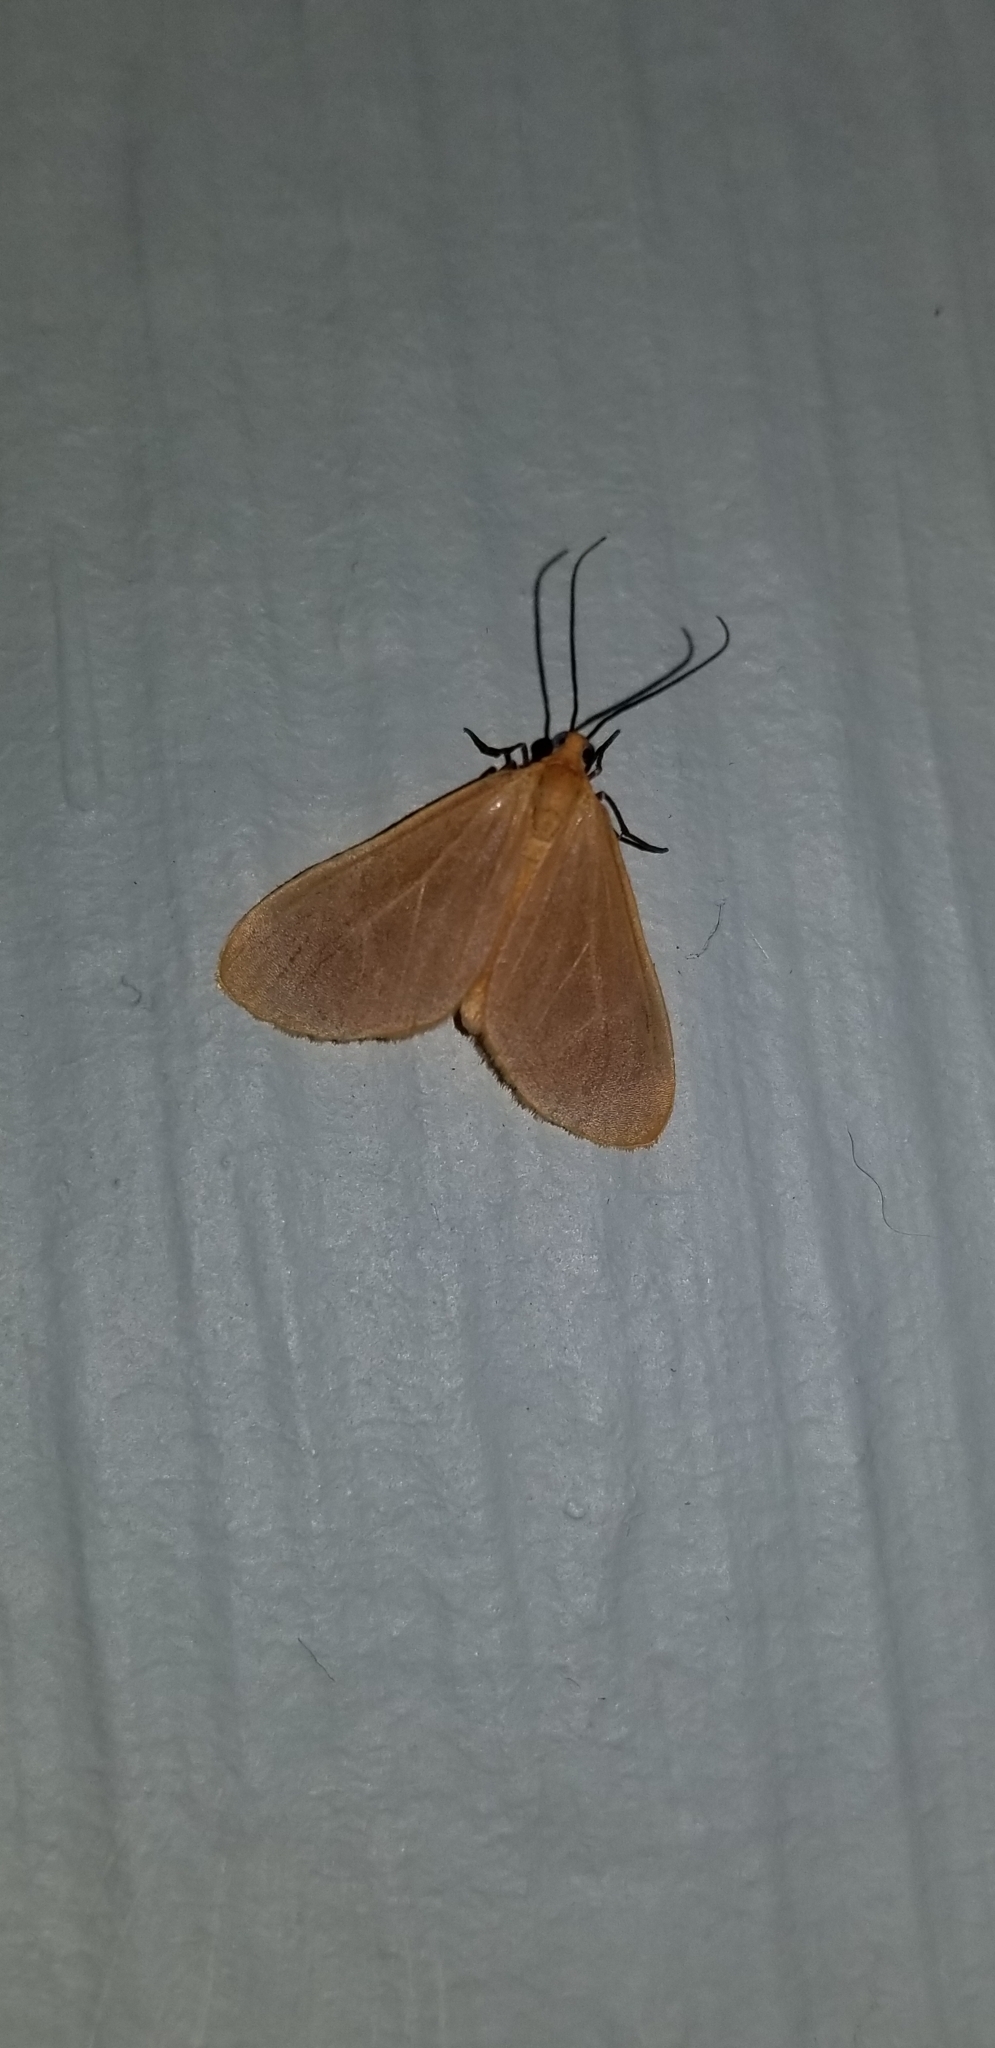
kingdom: Animalia
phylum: Arthropoda
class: Insecta
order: Lepidoptera
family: Geometridae
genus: Eubaphe
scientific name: Eubaphe unicolor
